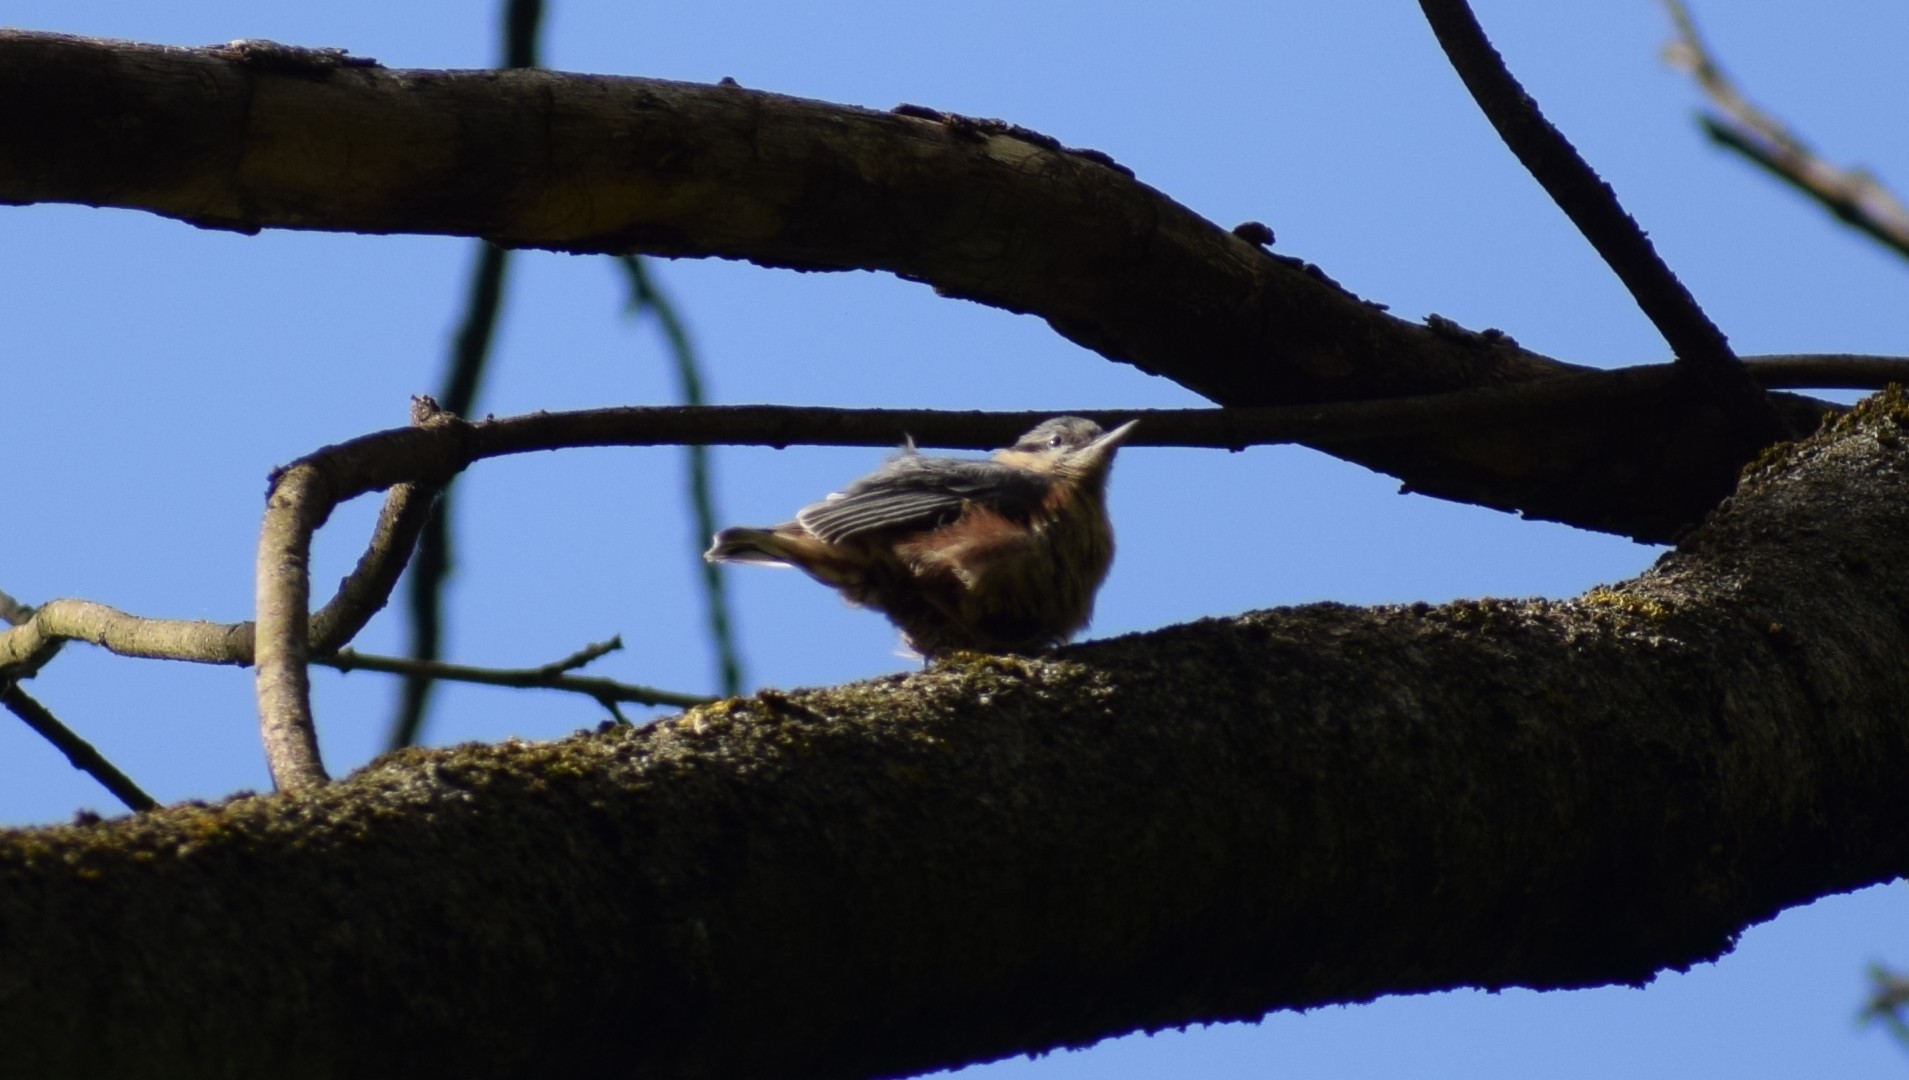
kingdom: Animalia
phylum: Chordata
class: Aves
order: Passeriformes
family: Sittidae
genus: Sitta
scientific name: Sitta europaea
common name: Eurasian nuthatch
